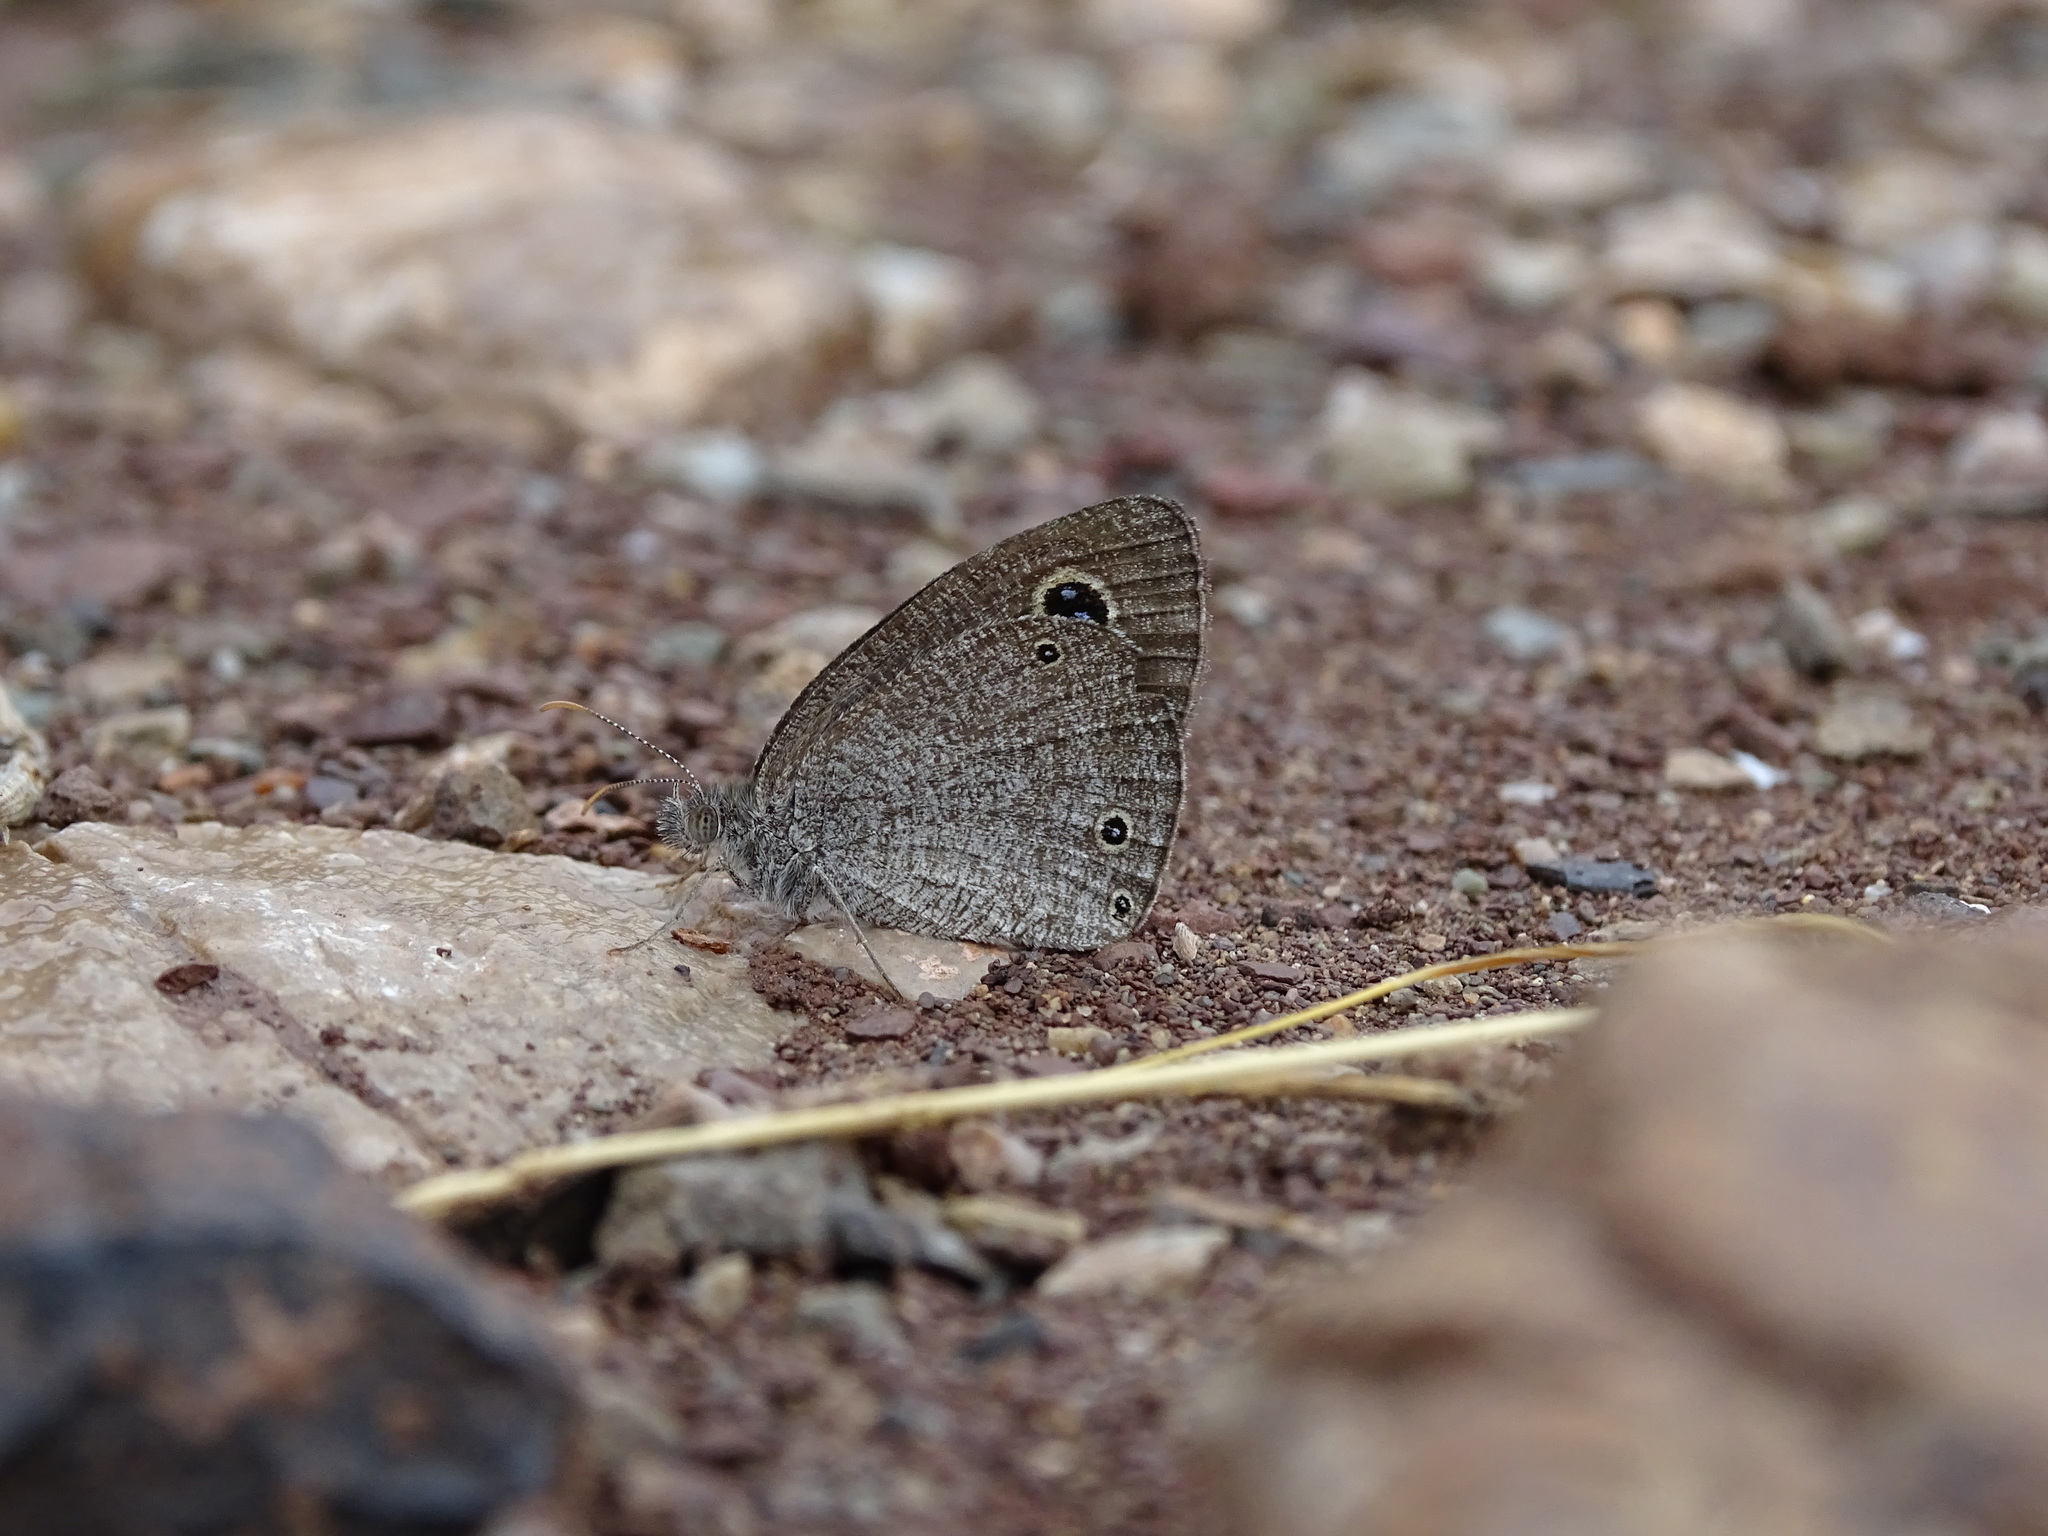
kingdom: Animalia
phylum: Arthropoda
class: Insecta
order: Lepidoptera
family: Nymphalidae
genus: Ypthima
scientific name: Ypthima asterope
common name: African ringlet
